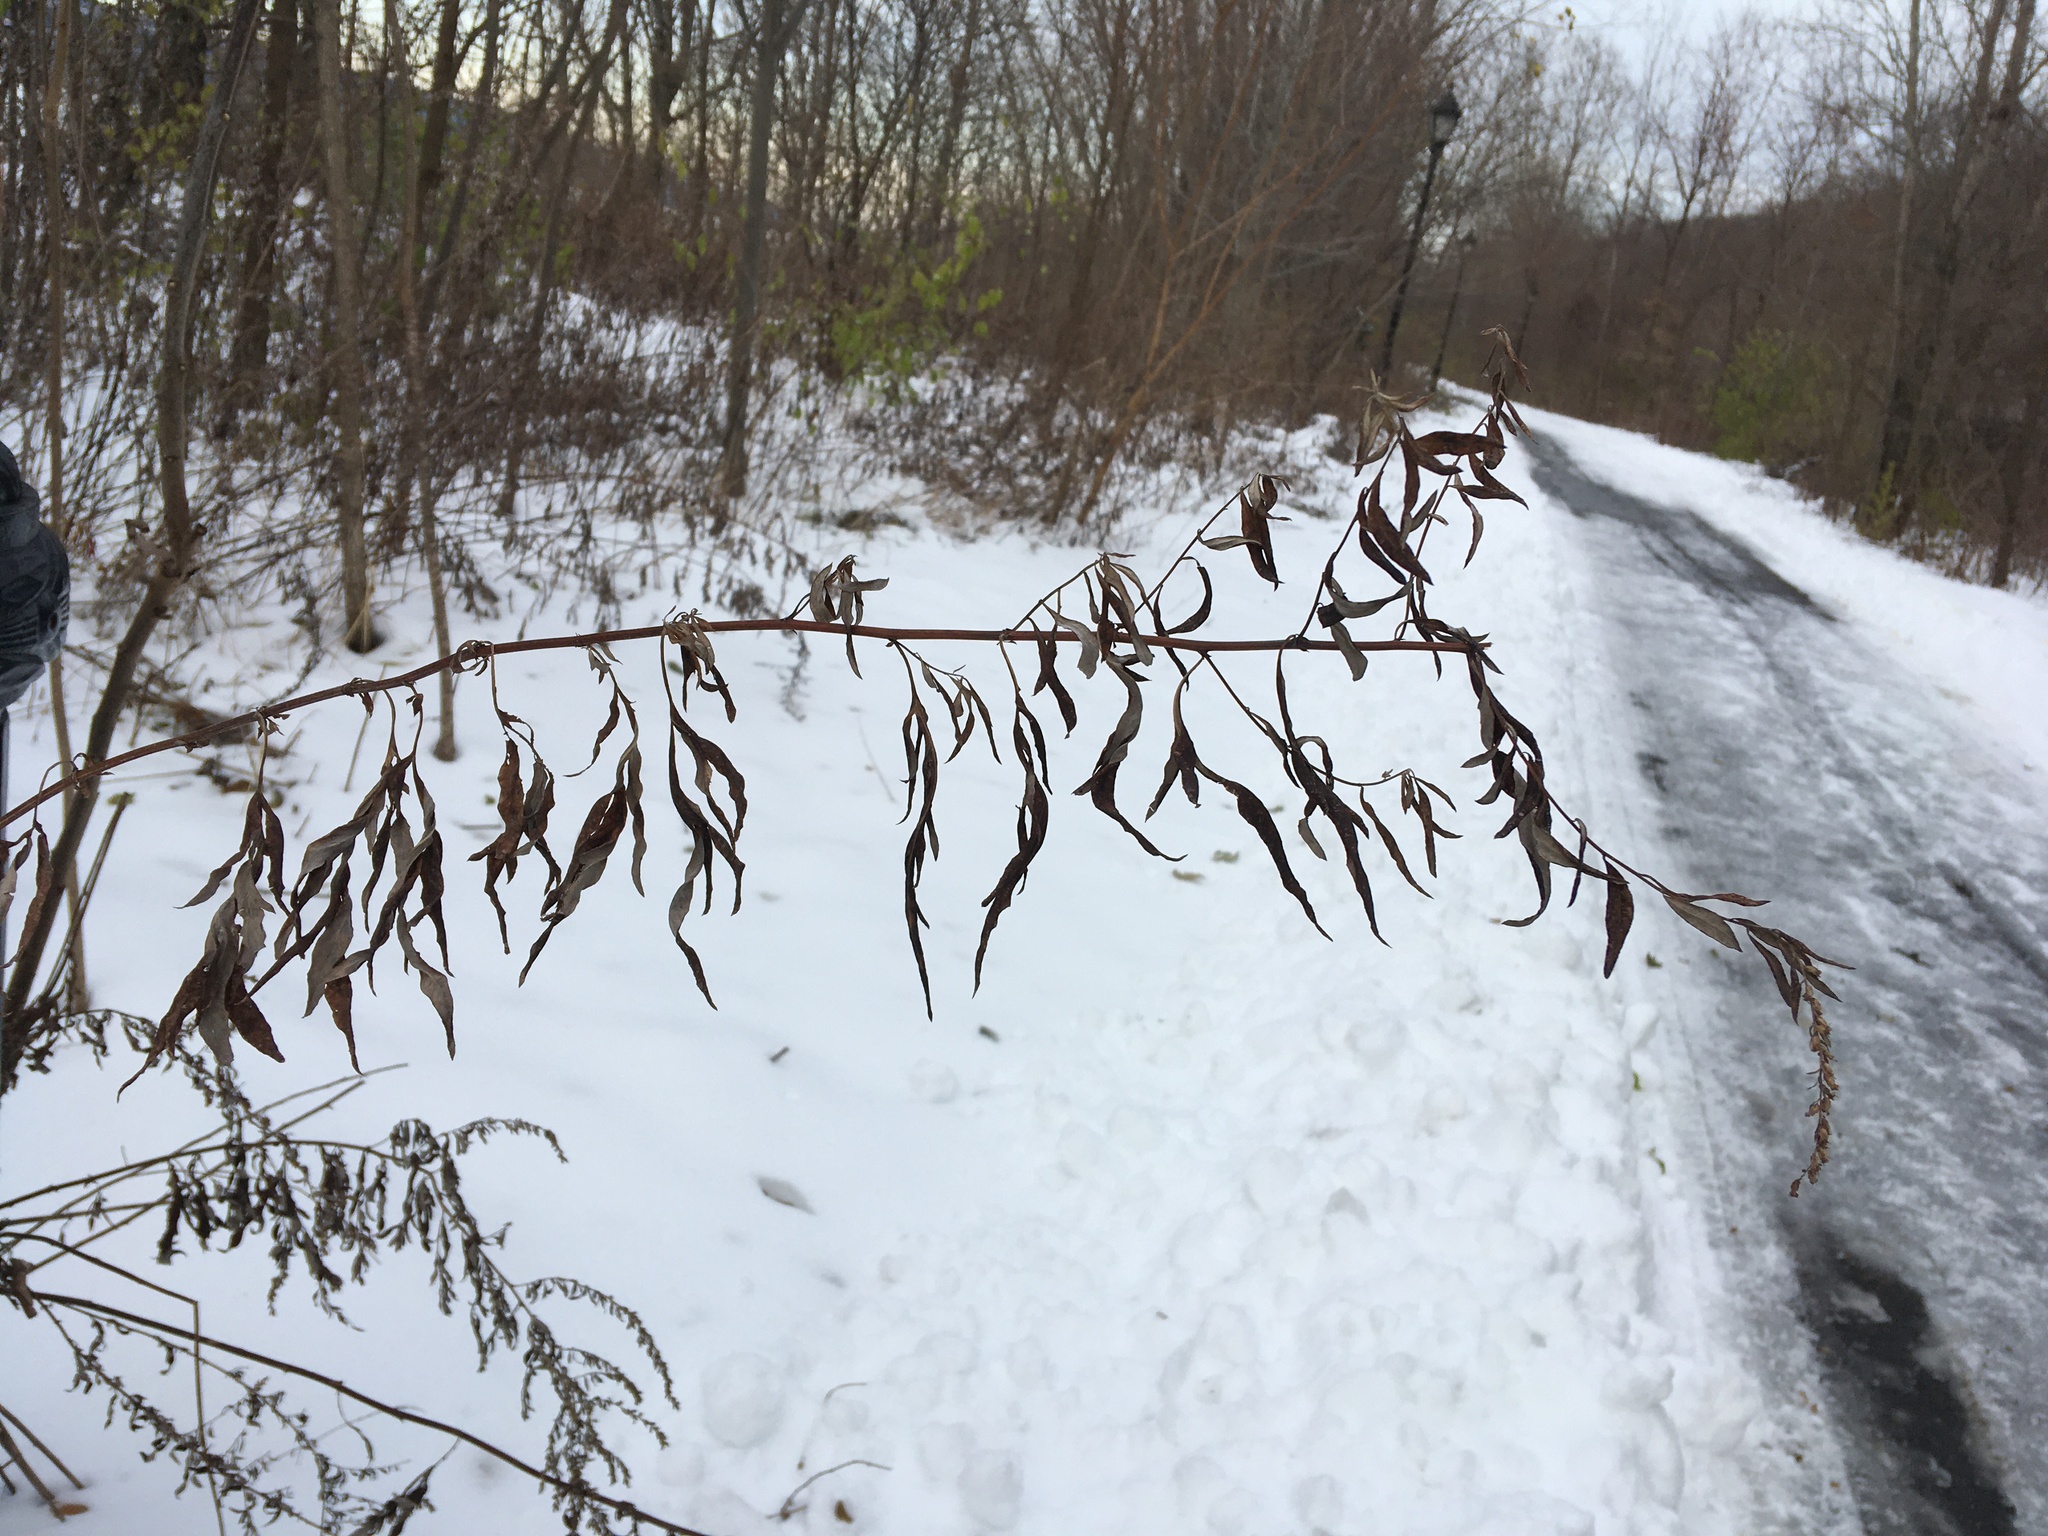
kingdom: Plantae
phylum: Tracheophyta
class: Magnoliopsida
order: Asterales
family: Asteraceae
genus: Artemisia
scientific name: Artemisia vulgaris
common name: Mugwort
